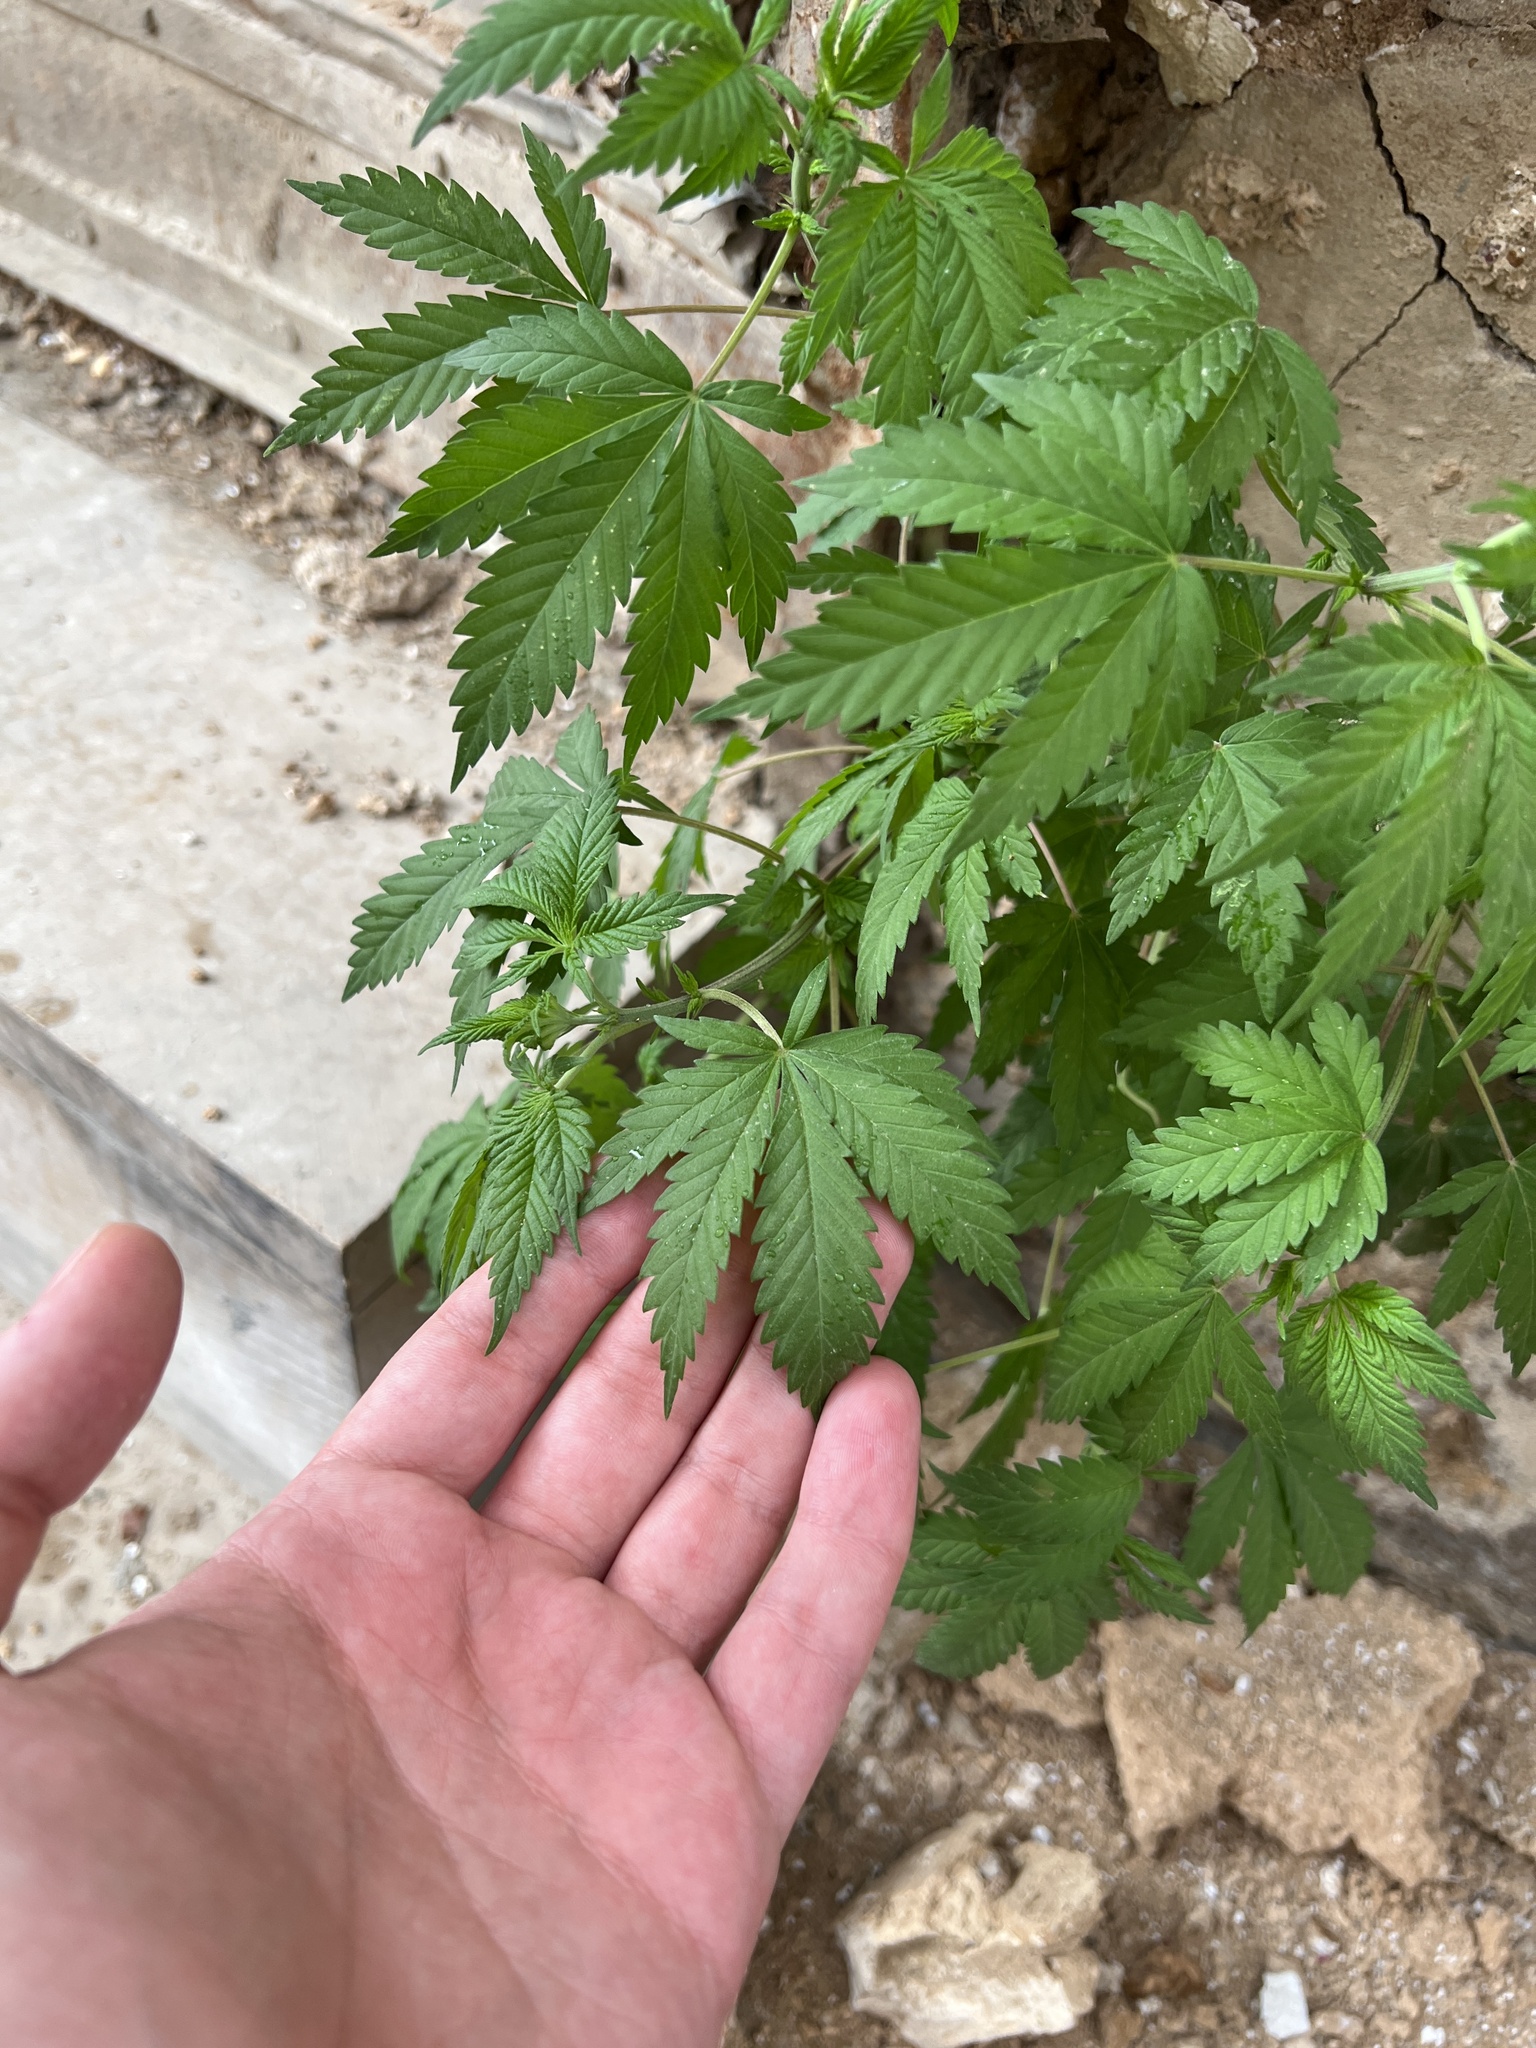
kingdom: Plantae
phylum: Tracheophyta
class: Magnoliopsida
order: Rosales
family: Cannabaceae
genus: Cannabis
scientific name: Cannabis sativa
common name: Hemp
